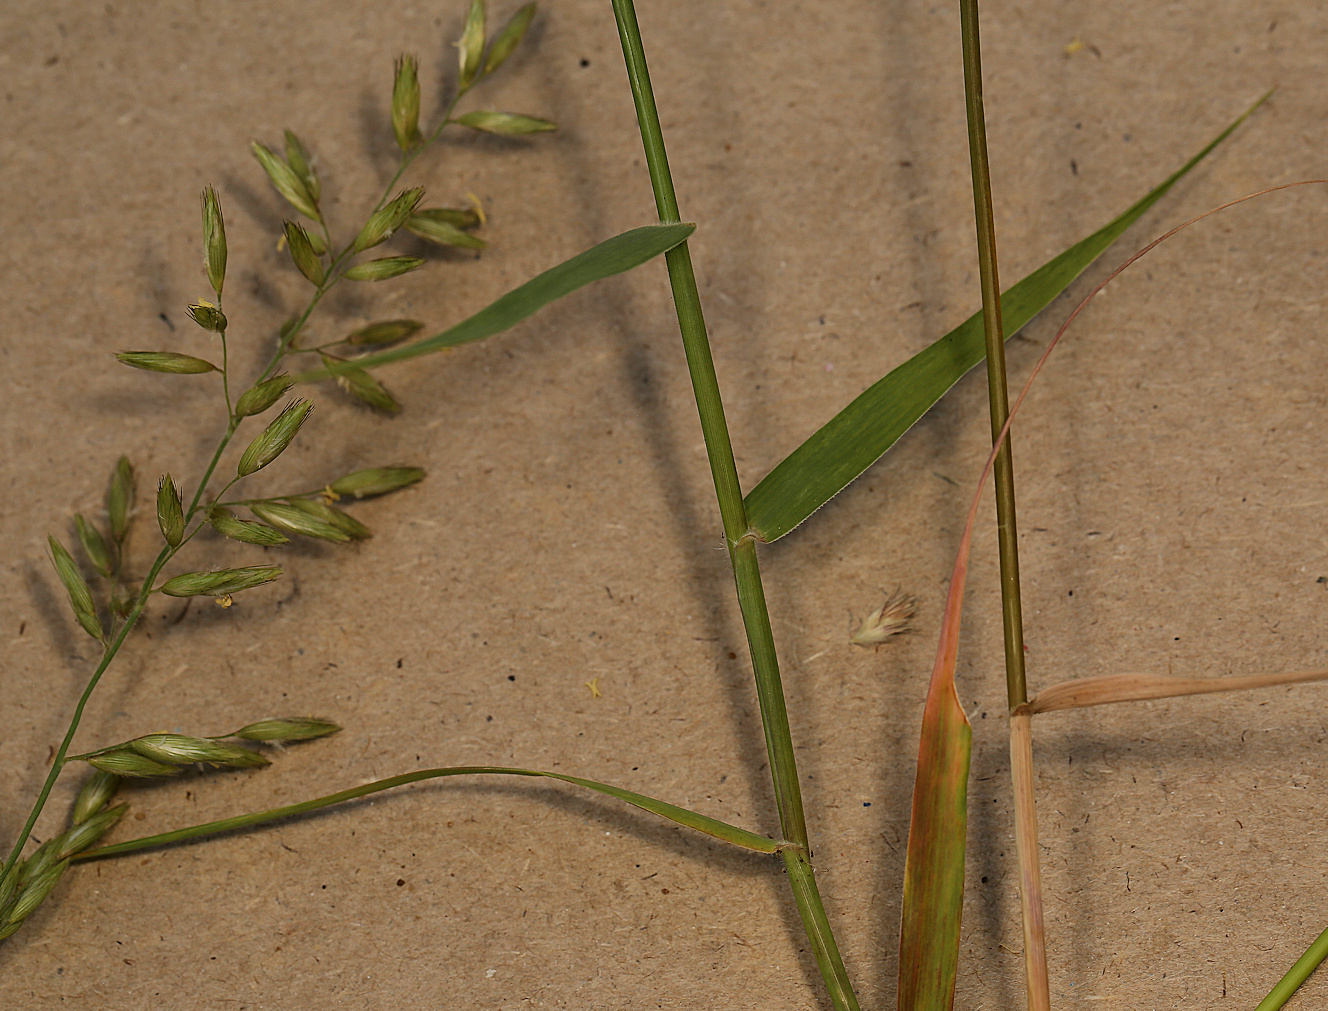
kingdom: Plantae
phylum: Tracheophyta
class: Liliopsida
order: Poales
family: Poaceae
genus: Schmidtia
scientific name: Schmidtia pappophoroides
